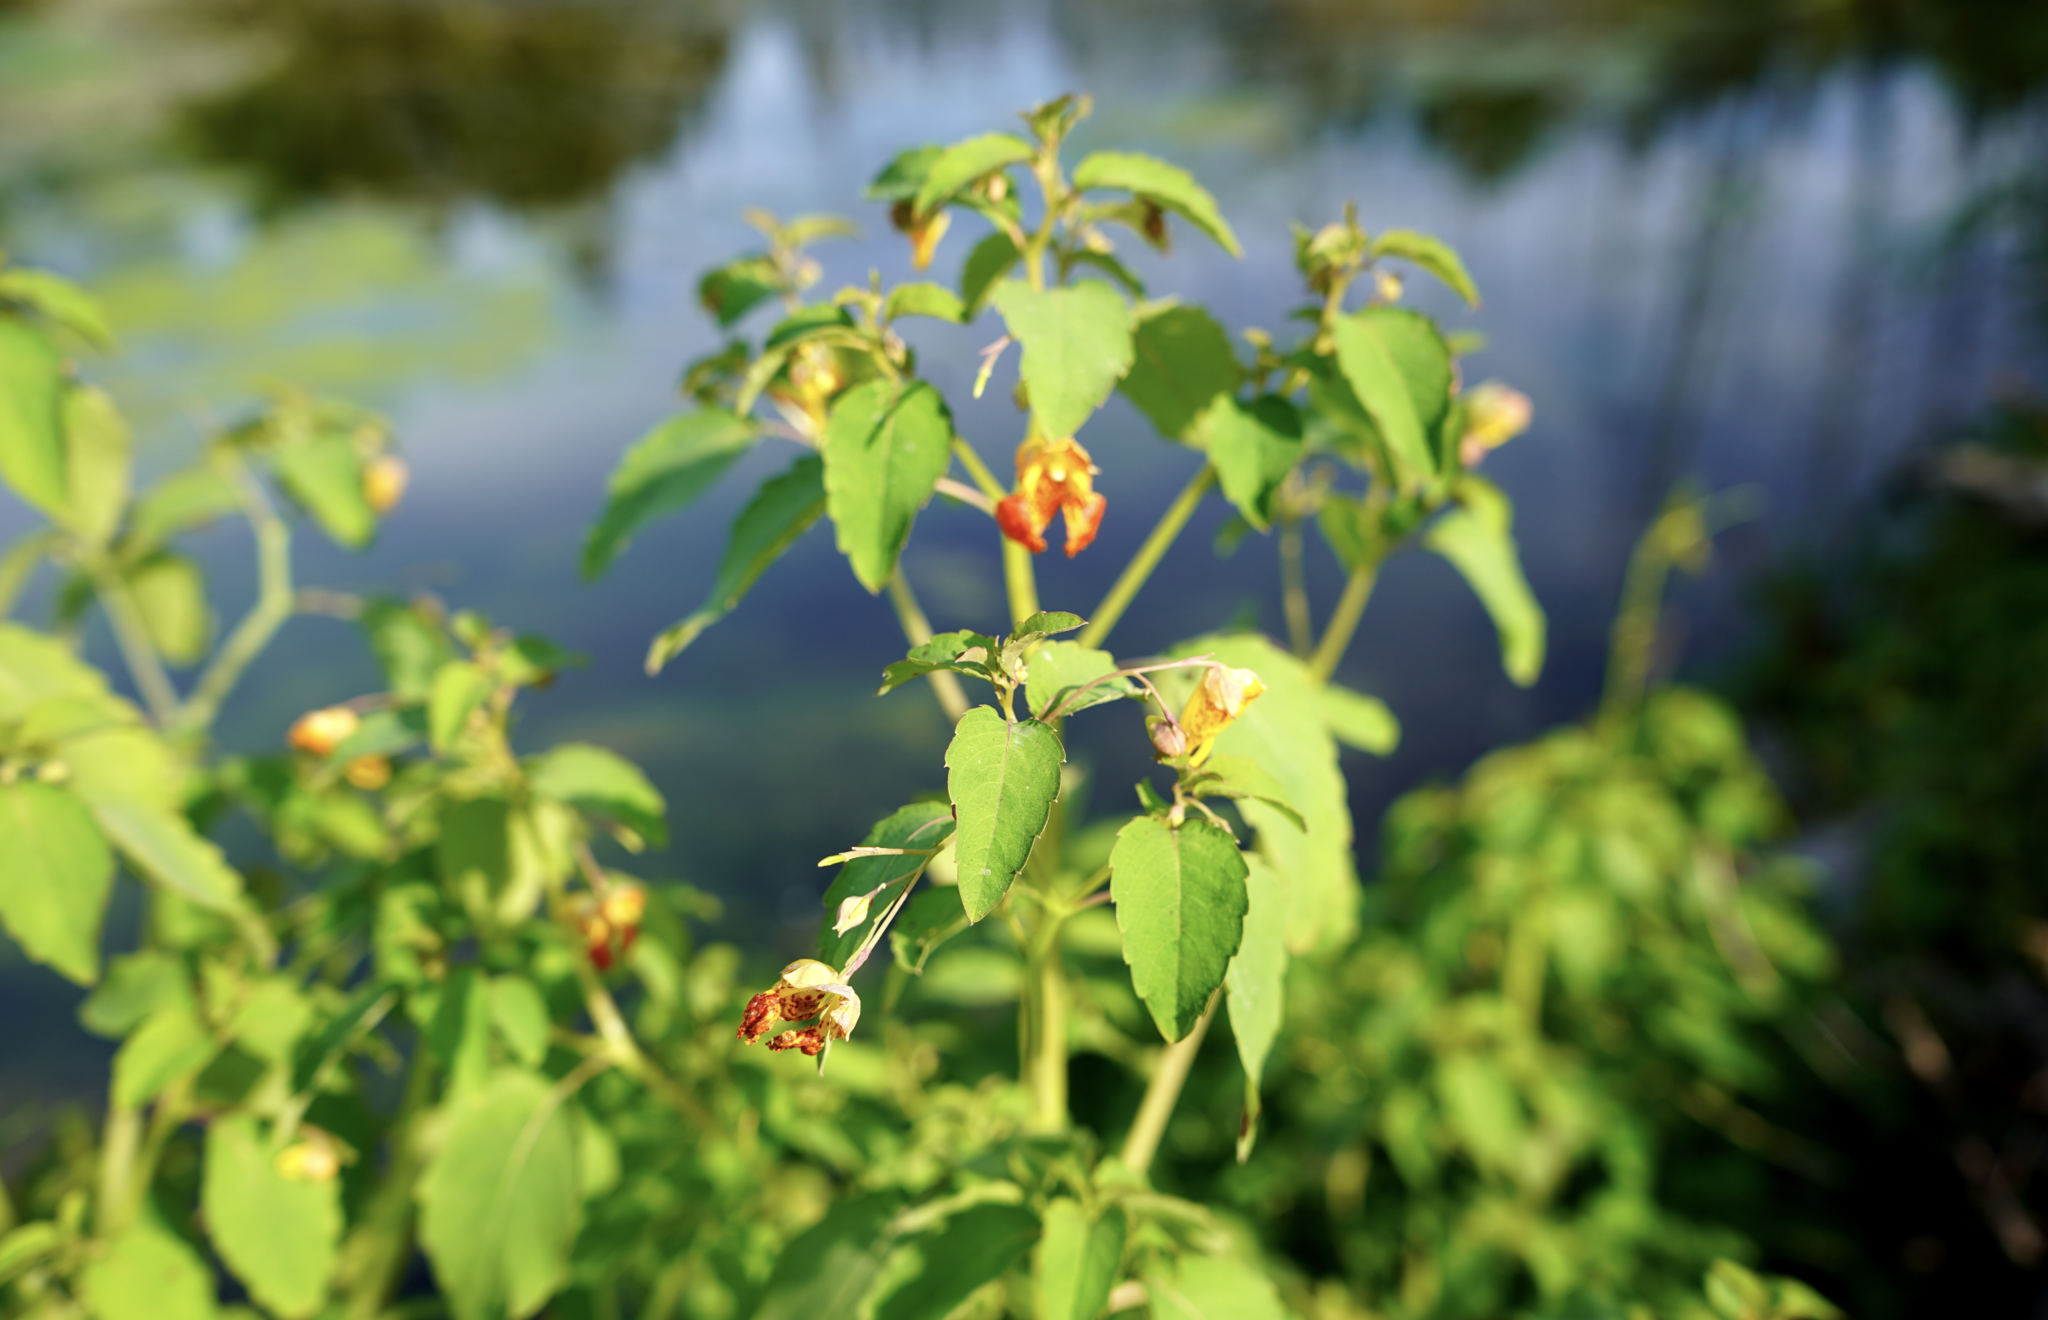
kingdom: Plantae
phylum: Tracheophyta
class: Magnoliopsida
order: Ericales
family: Balsaminaceae
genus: Impatiens
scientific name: Impatiens capensis
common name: Orange balsam
